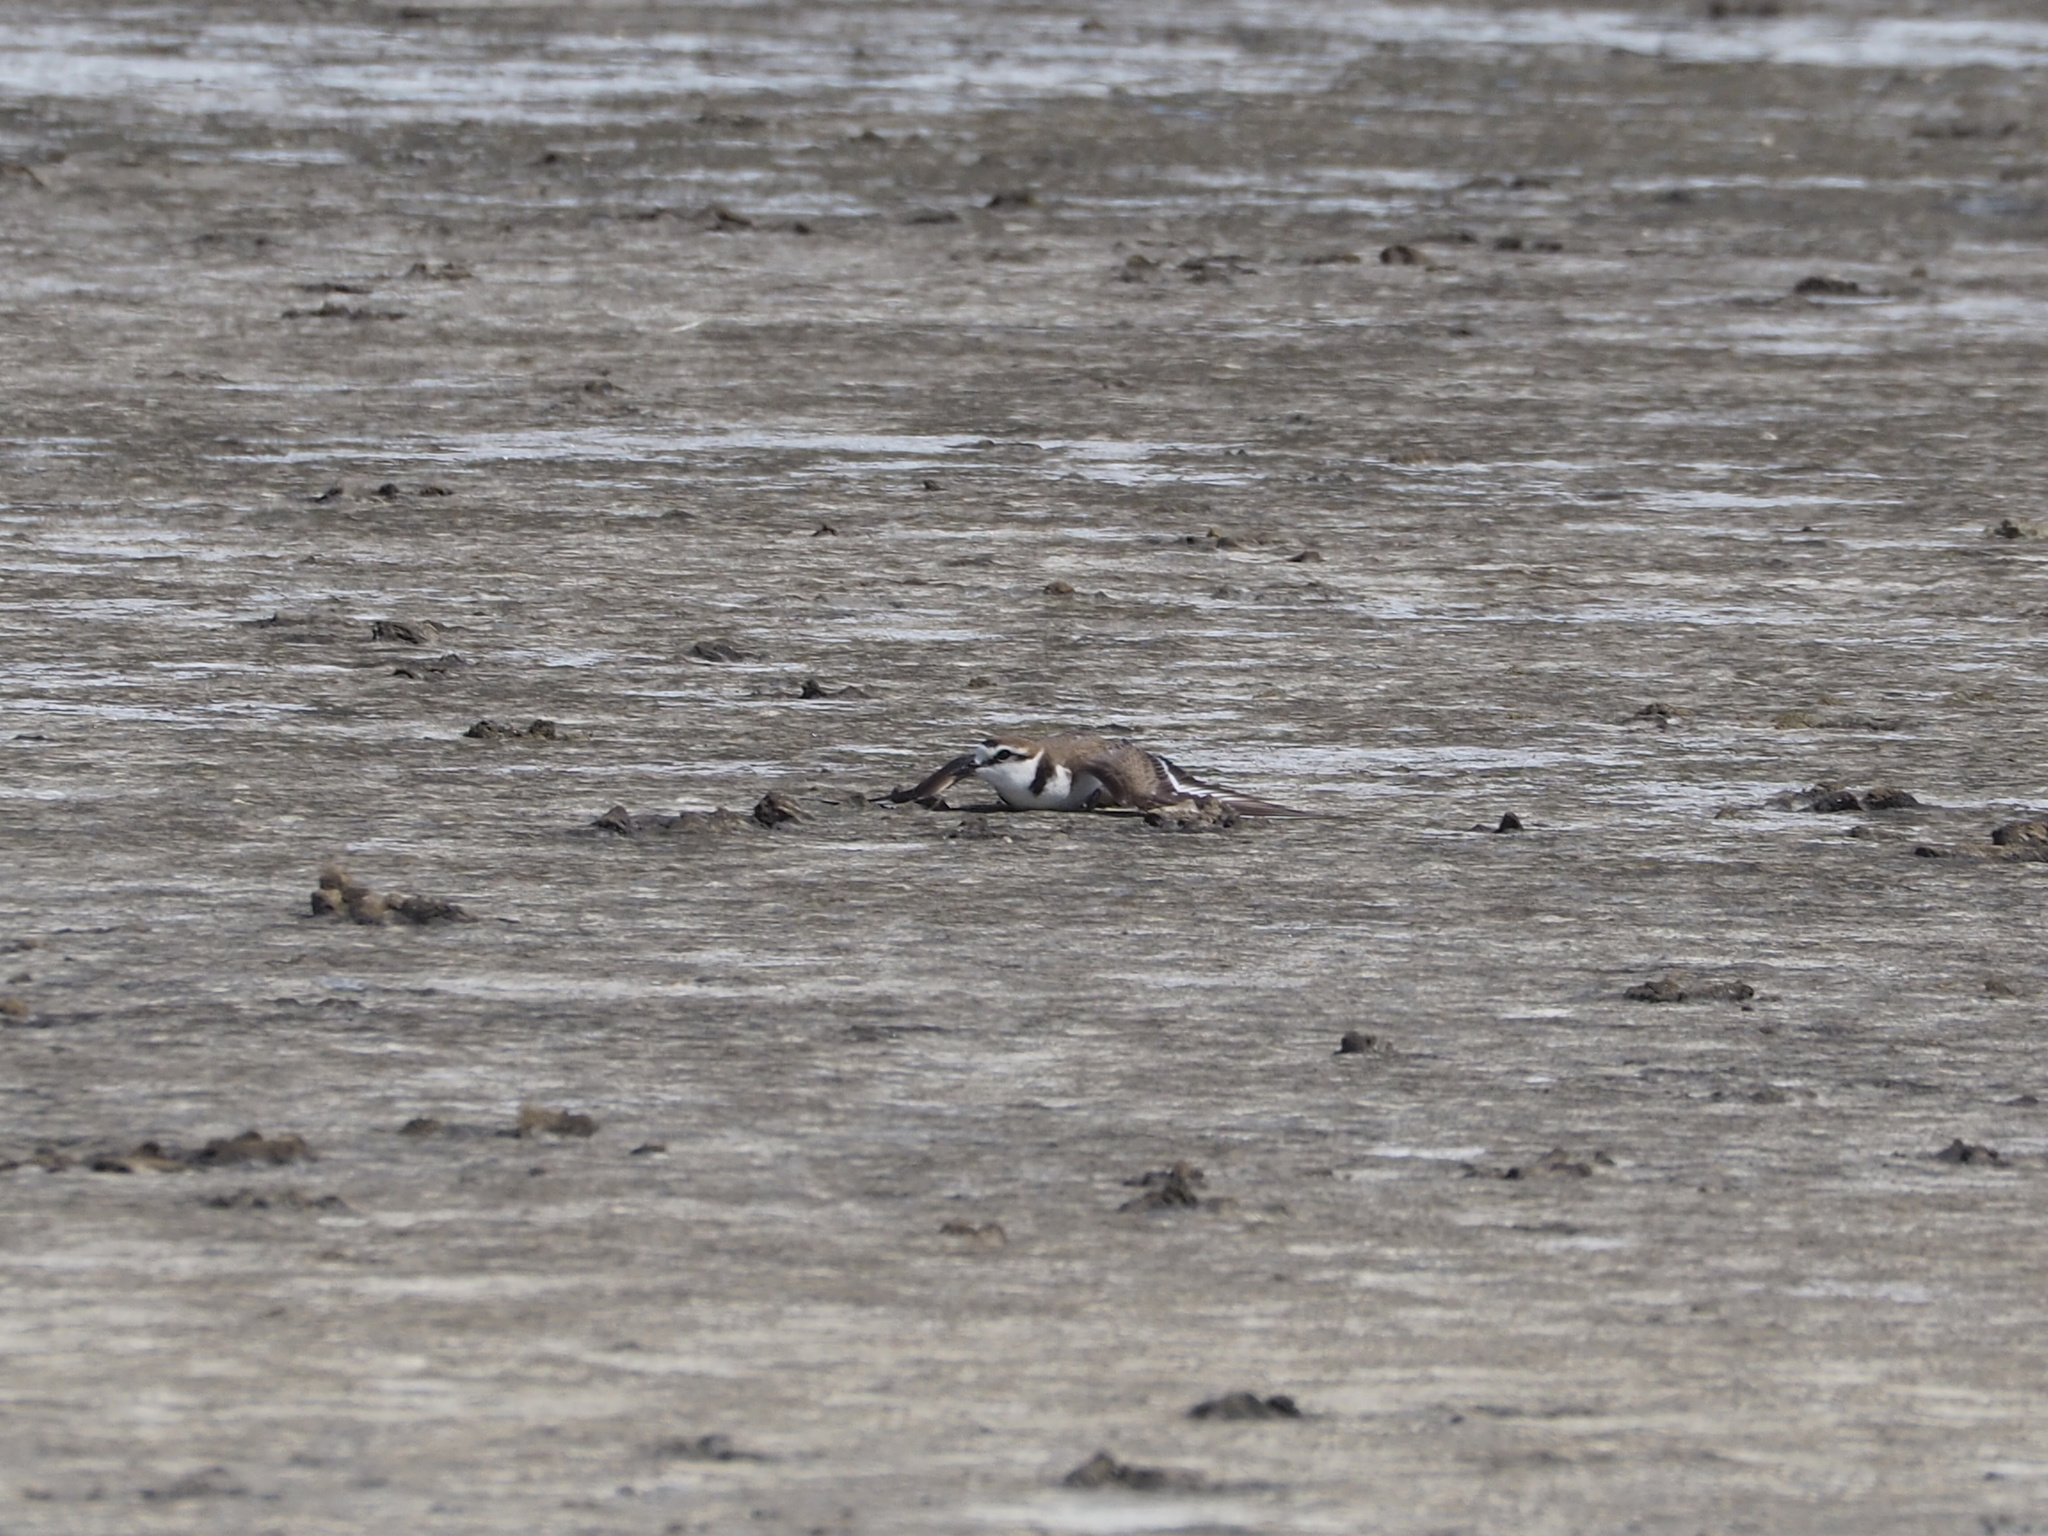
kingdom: Animalia
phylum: Chordata
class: Aves
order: Charadriiformes
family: Charadriidae
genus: Charadrius
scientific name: Charadrius alexandrinus
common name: Kentish plover
